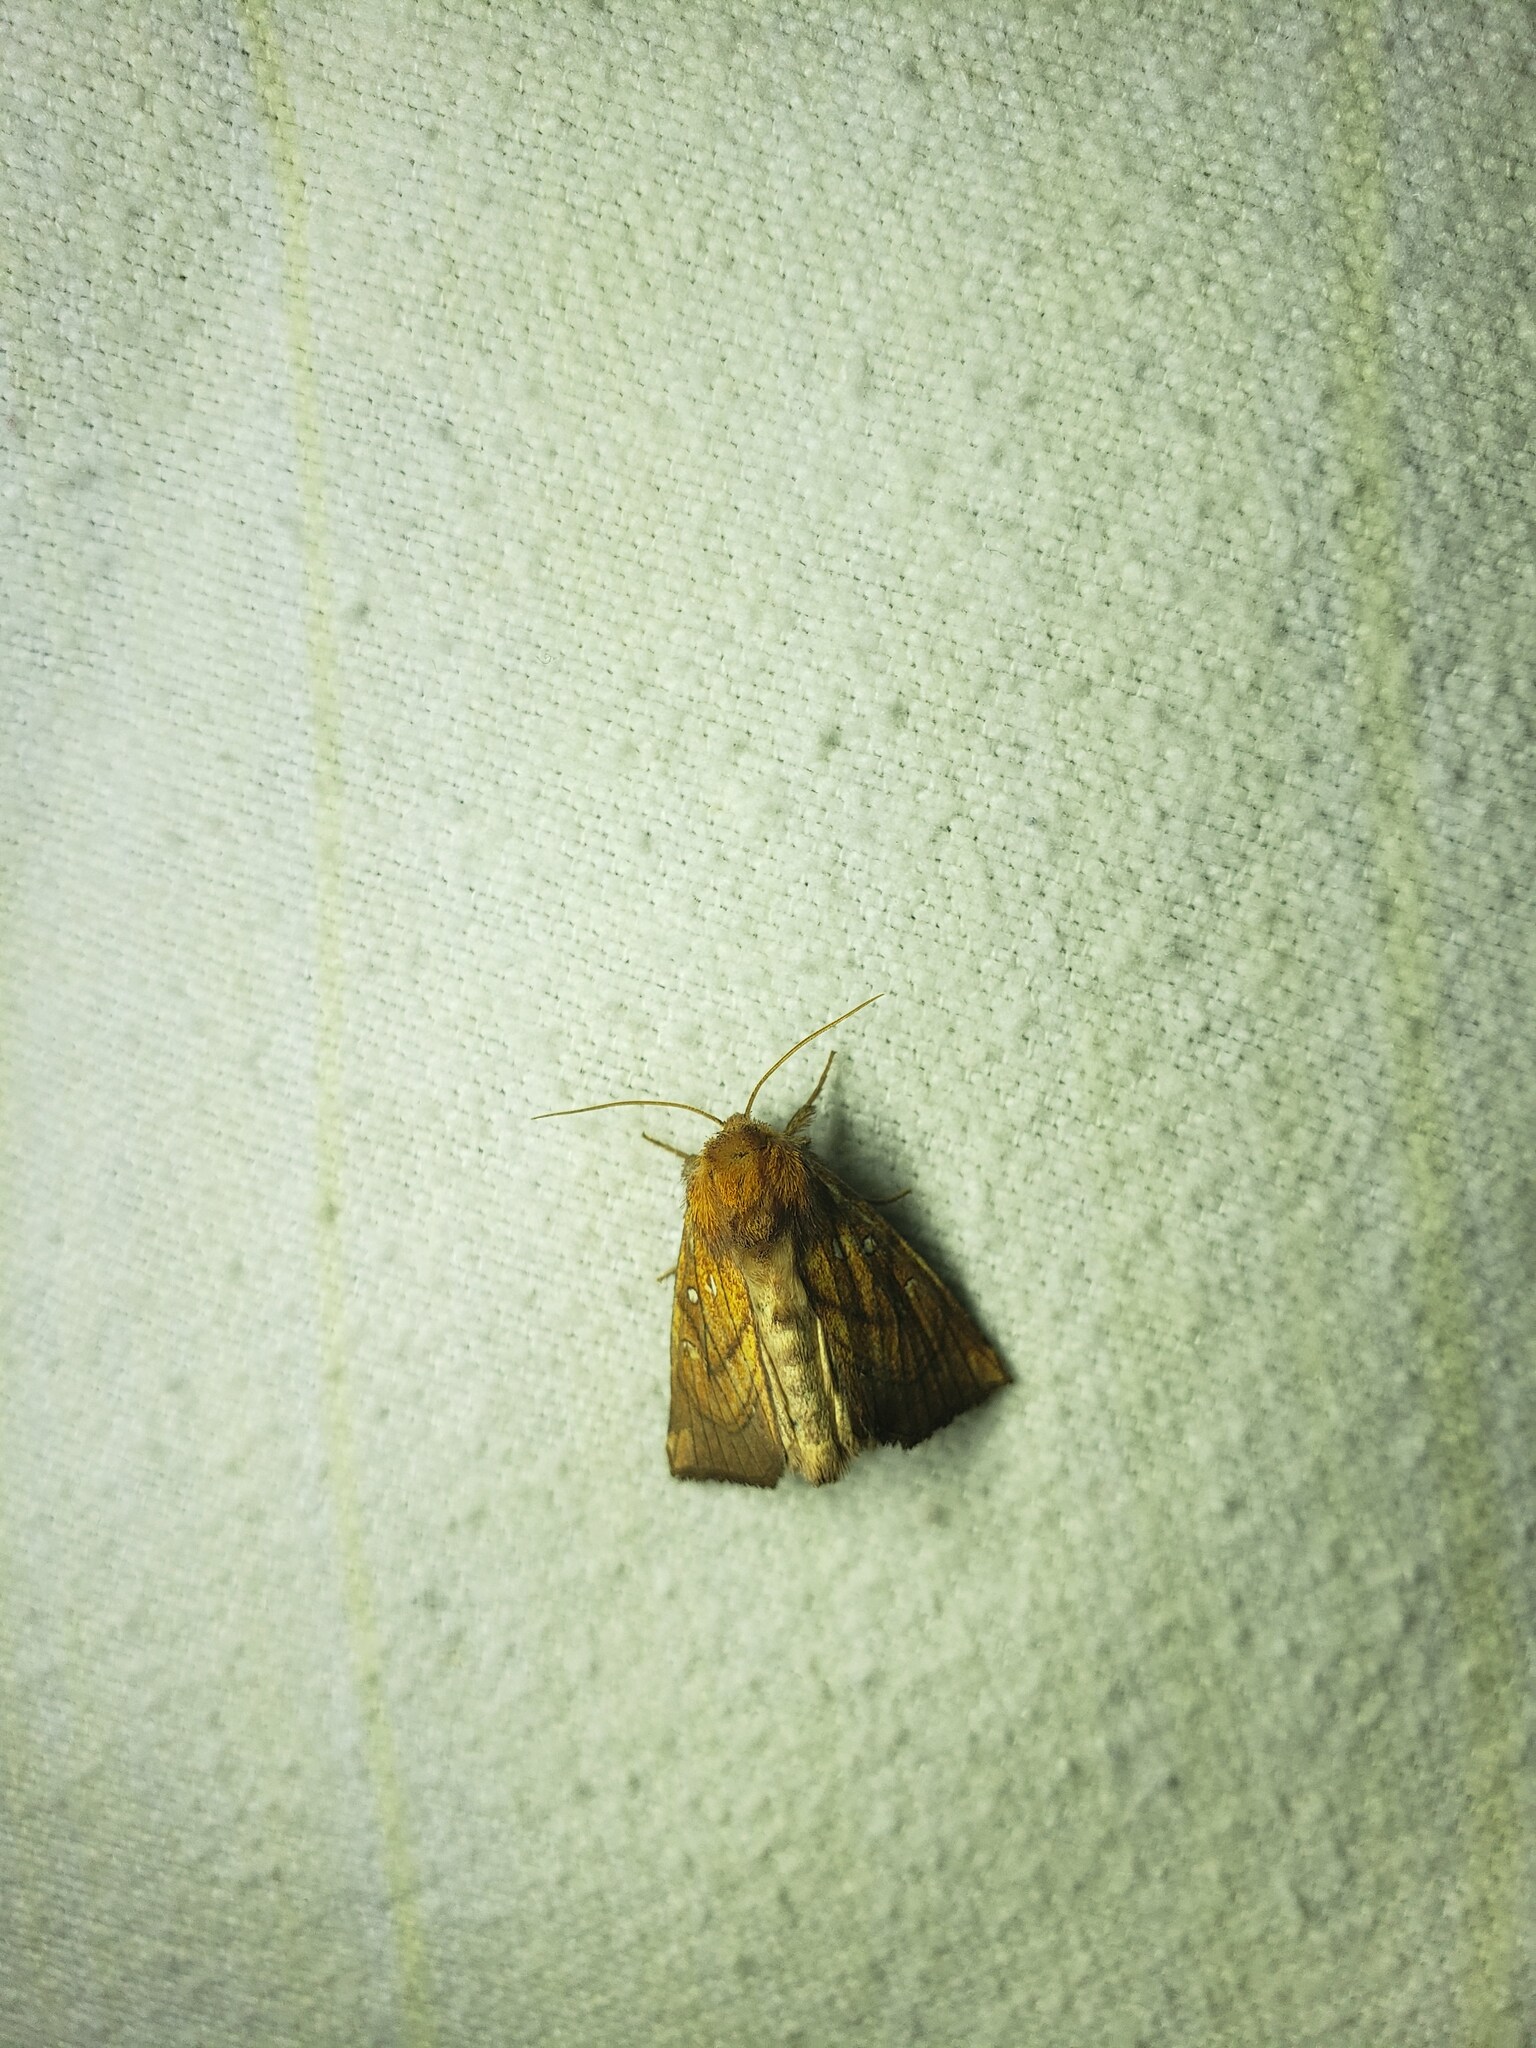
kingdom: Animalia
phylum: Arthropoda
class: Insecta
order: Lepidoptera
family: Noctuidae
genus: Papaipema
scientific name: Papaipema inquaesita
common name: Sensitive fern borer moth
